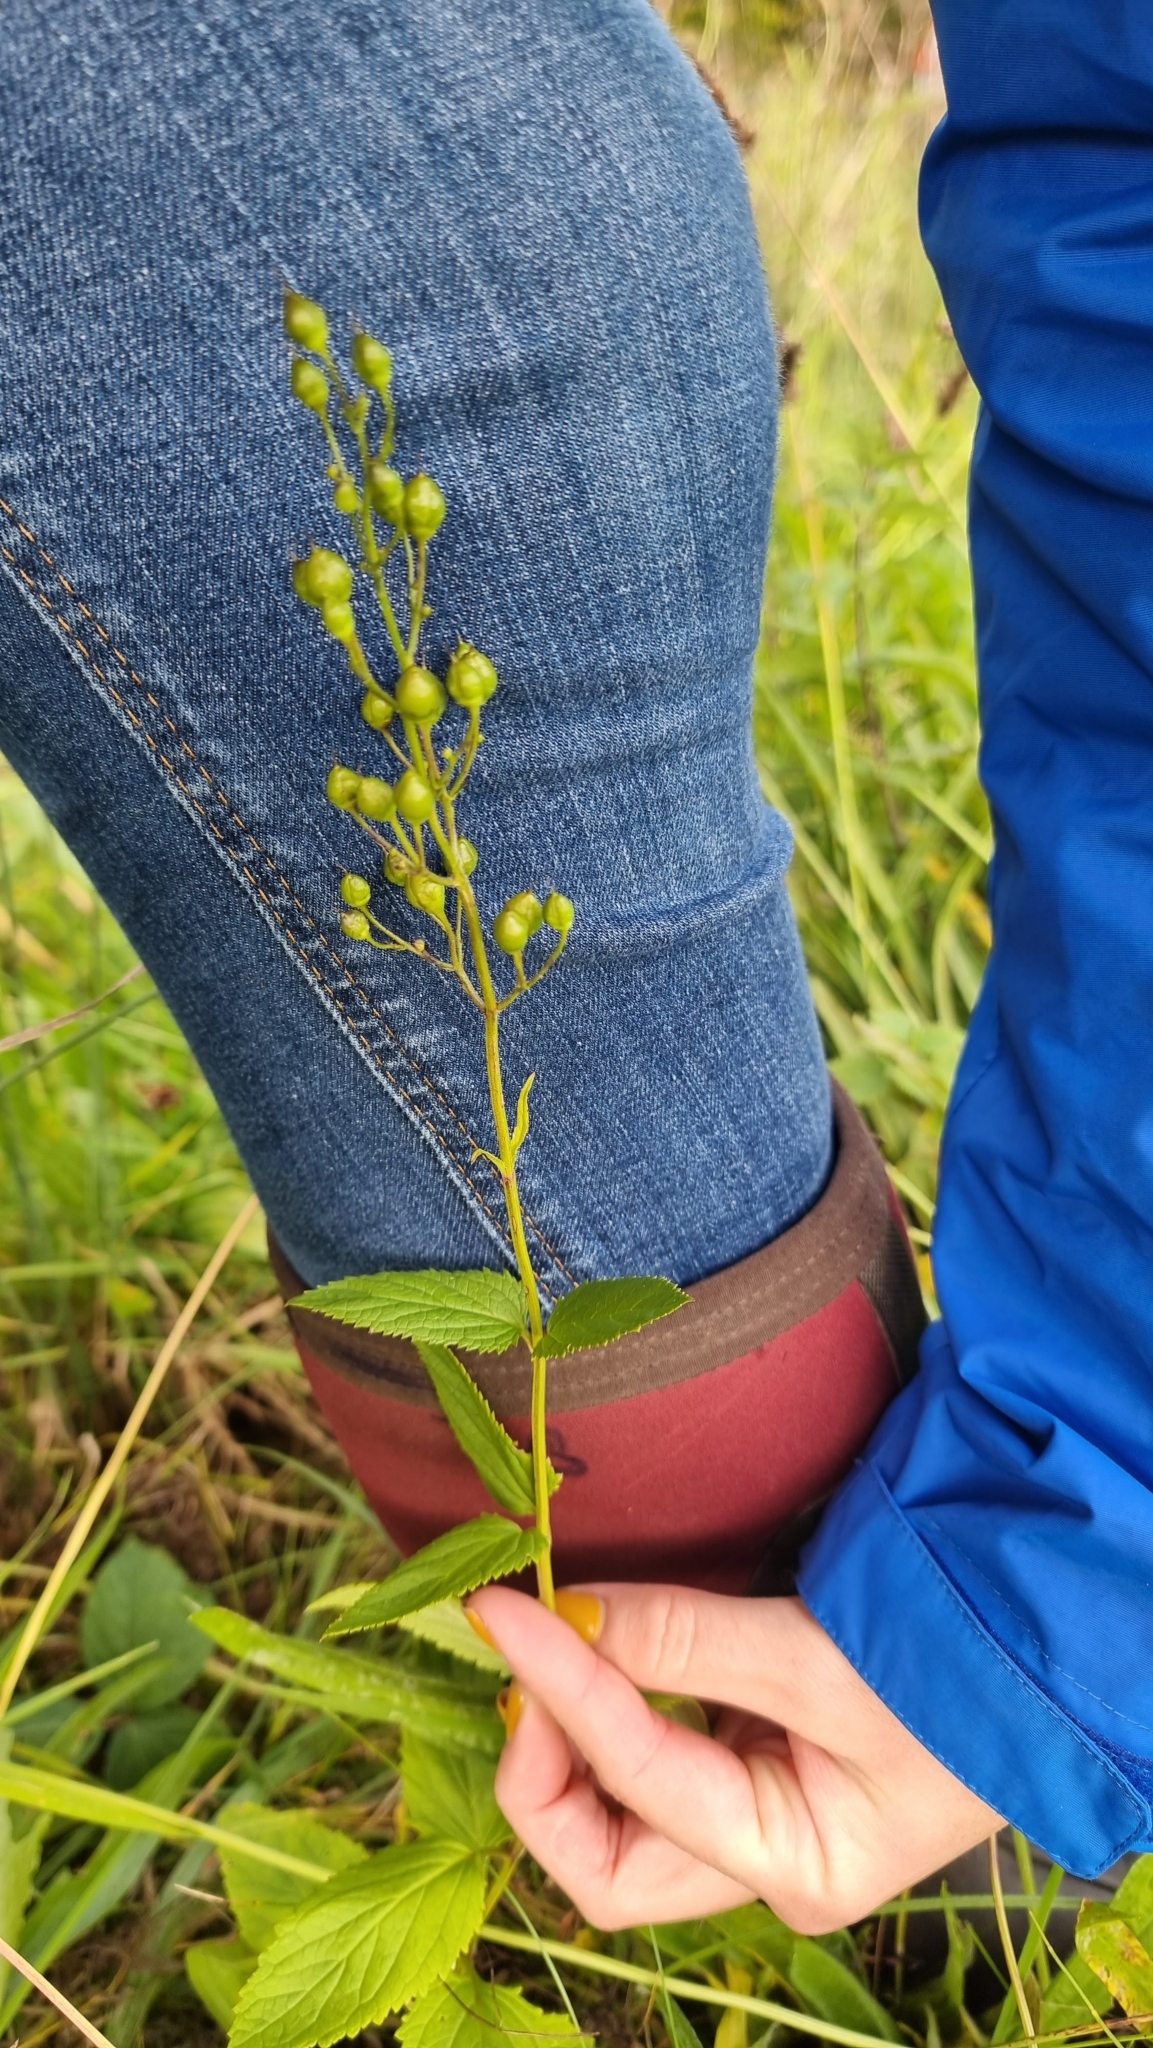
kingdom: Plantae
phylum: Tracheophyta
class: Magnoliopsida
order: Lamiales
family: Scrophulariaceae
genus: Scrophularia
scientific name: Scrophularia nodosa
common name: Common figwort
